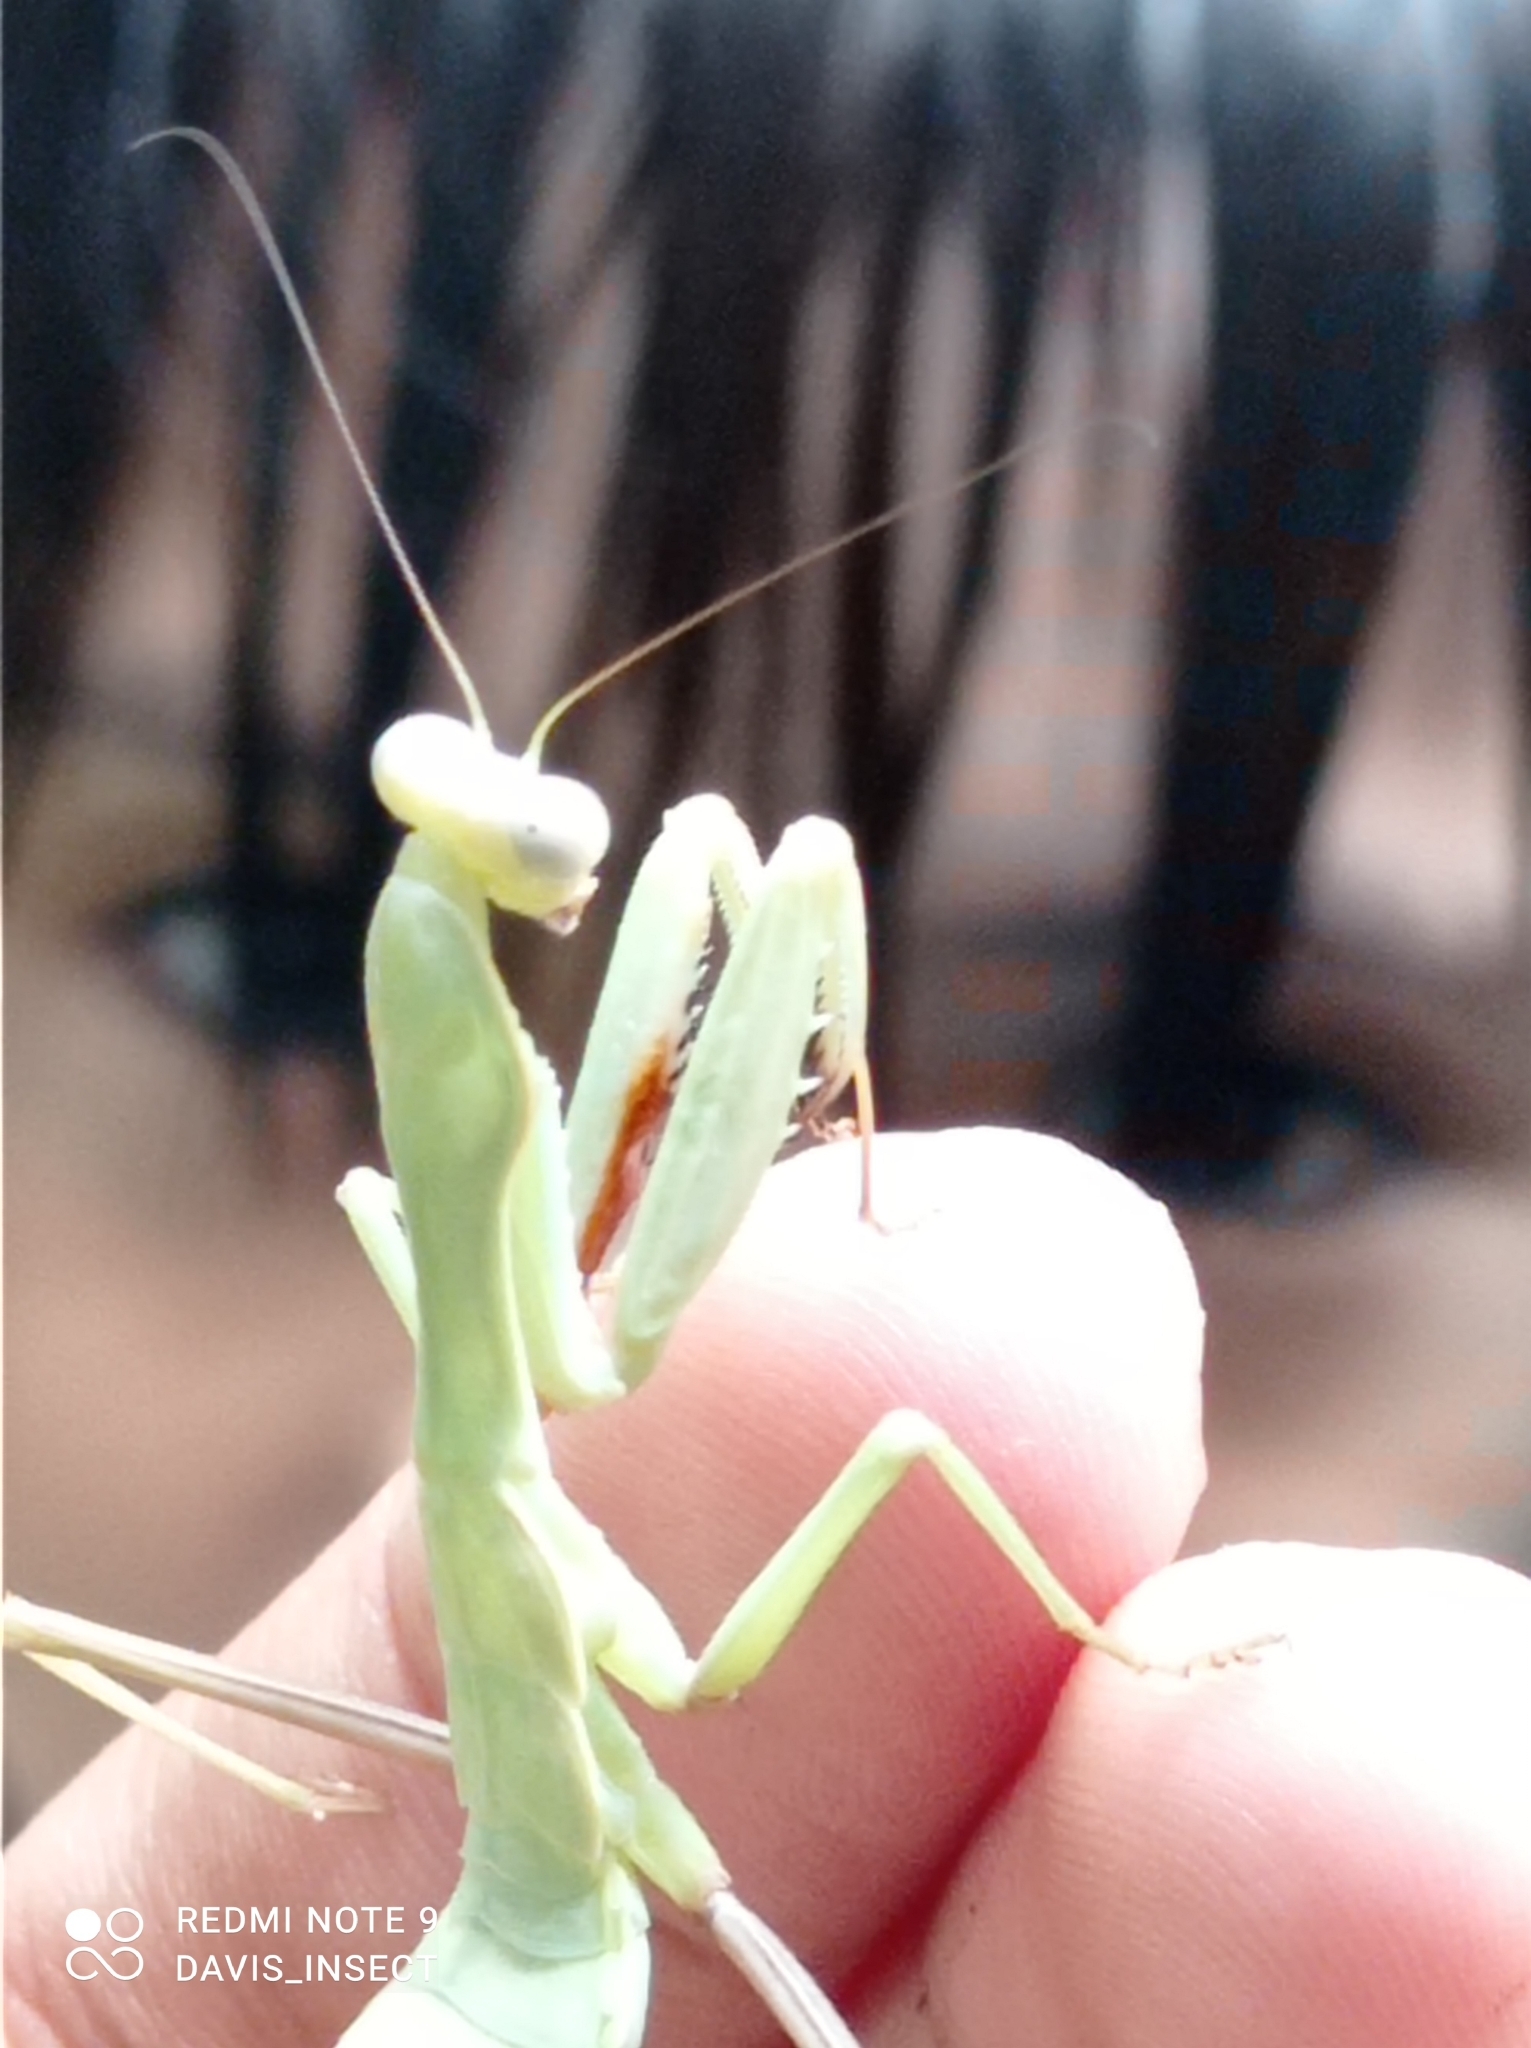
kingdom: Animalia
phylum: Arthropoda
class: Insecta
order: Mantodea
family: Mantidae
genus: Hierodula
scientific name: Hierodula timorensis
